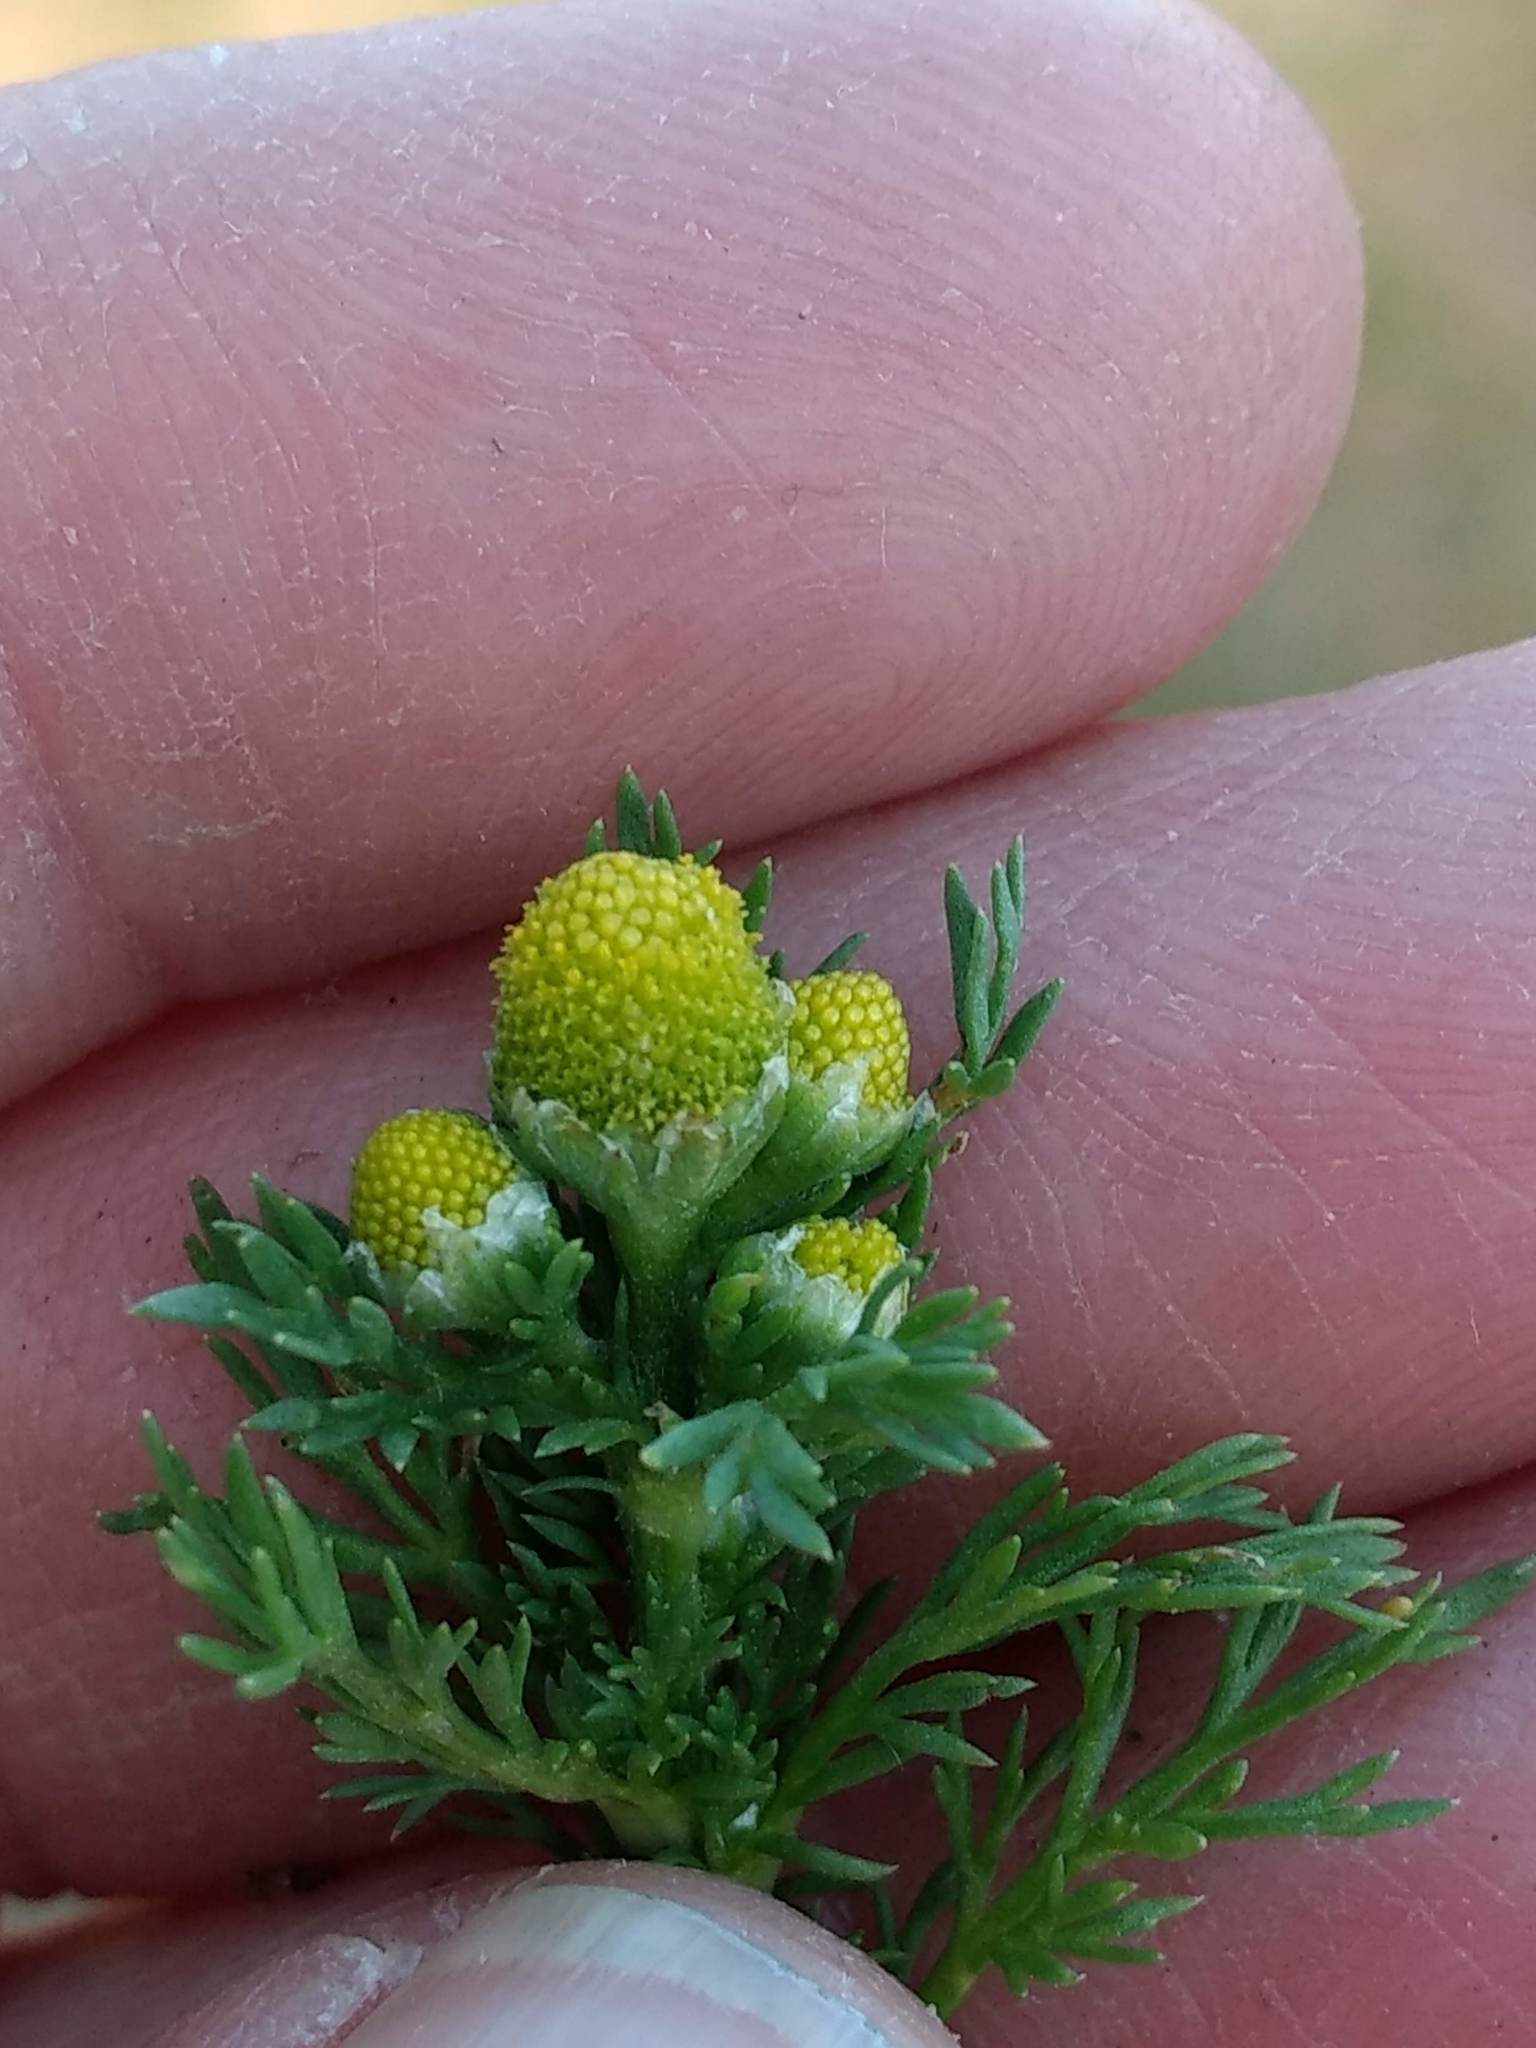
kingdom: Plantae
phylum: Tracheophyta
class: Magnoliopsida
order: Asterales
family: Asteraceae
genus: Matricaria
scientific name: Matricaria discoidea
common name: Disc mayweed
